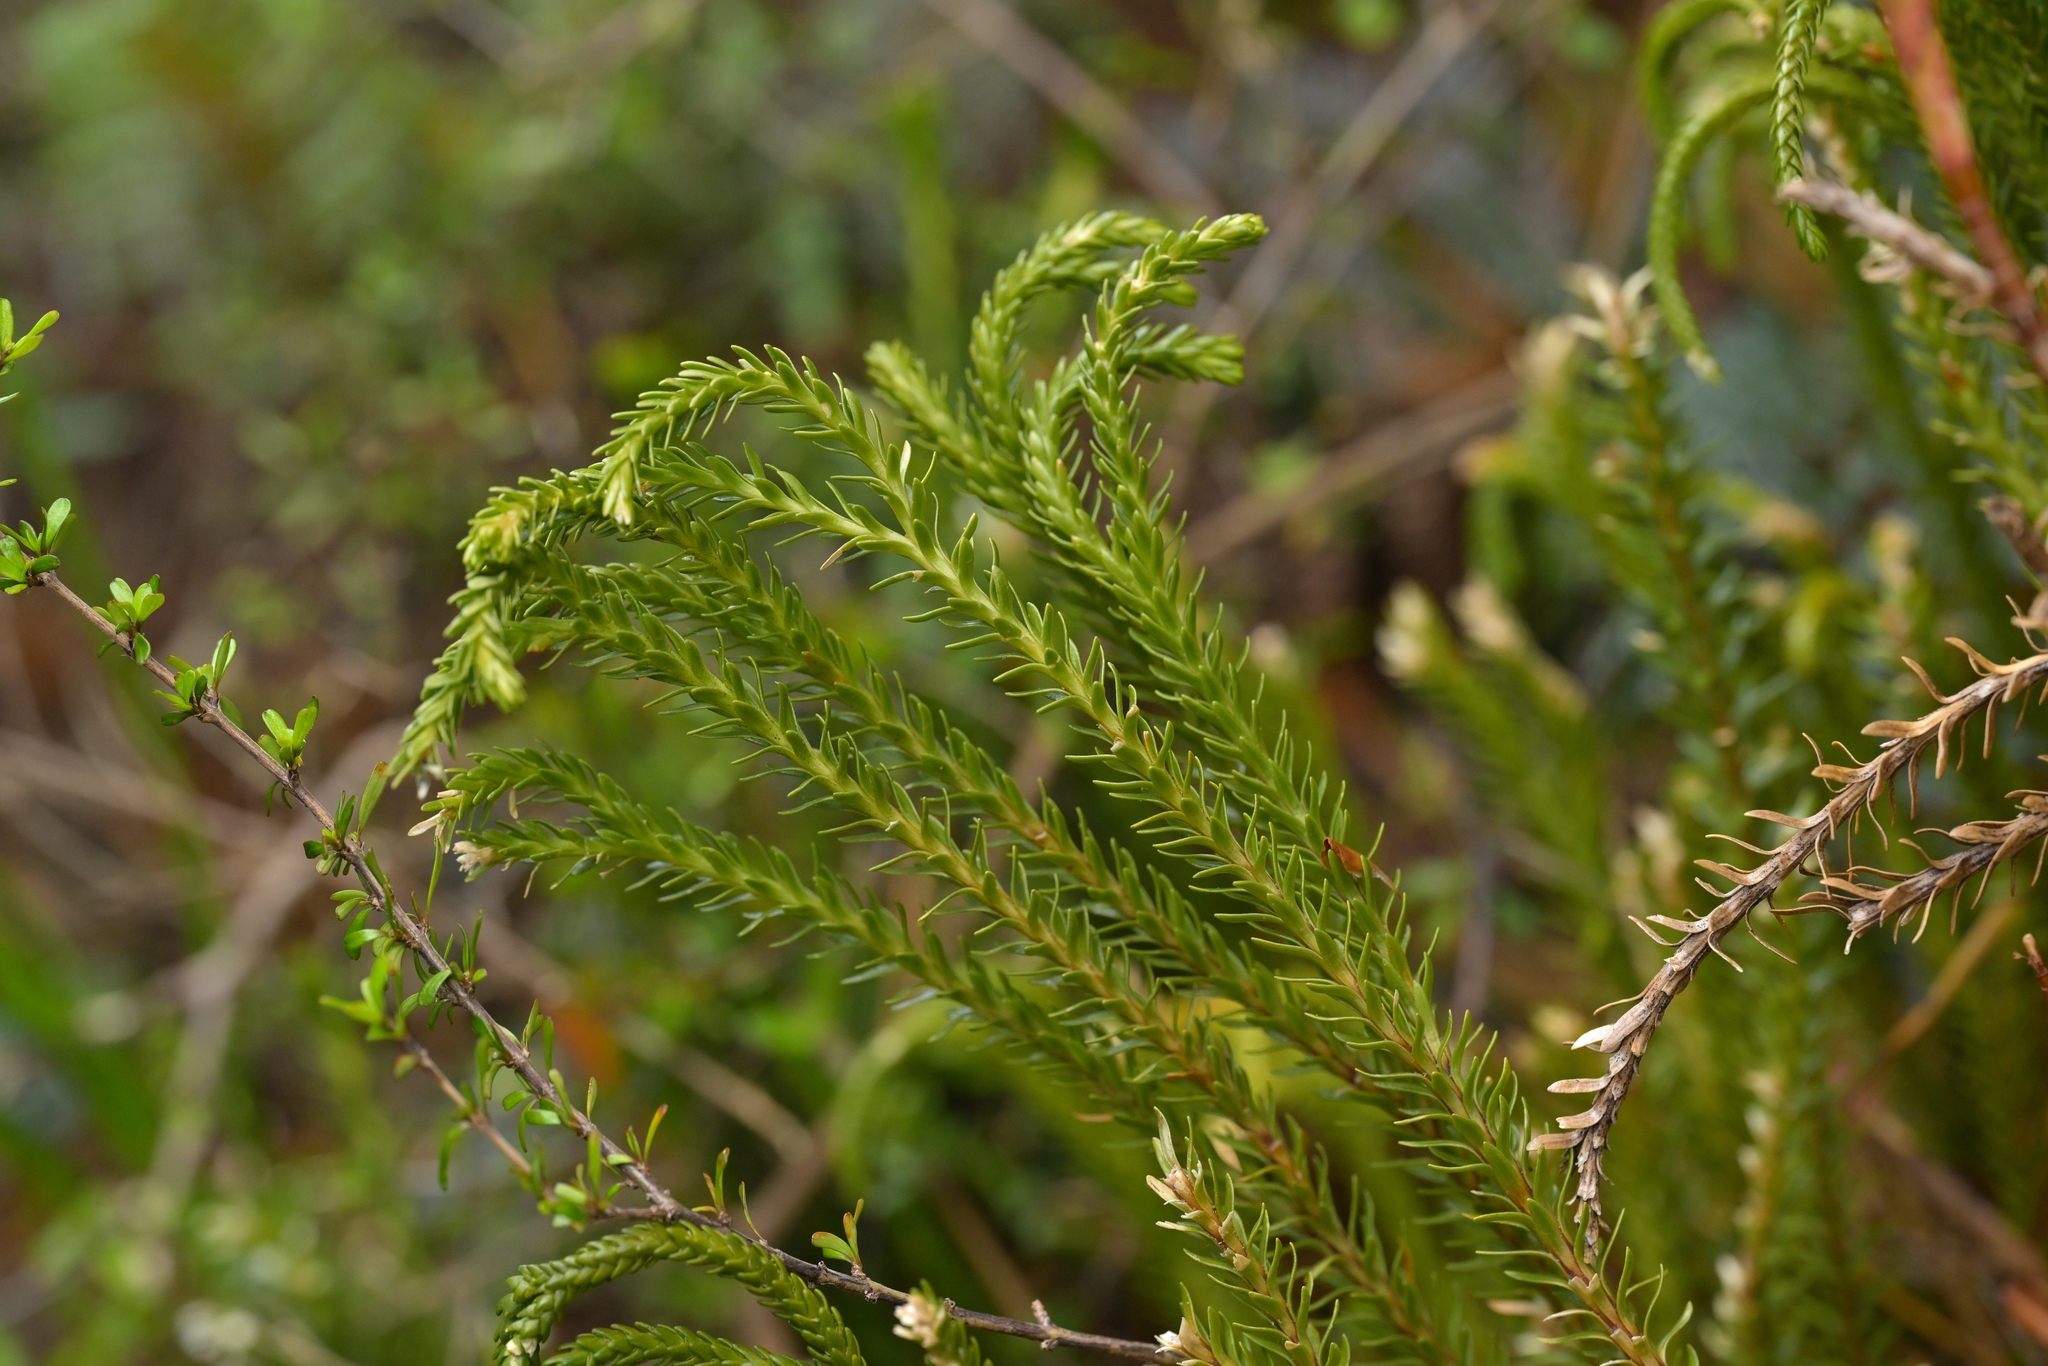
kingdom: Plantae
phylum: Tracheophyta
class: Lycopodiopsida
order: Lycopodiales
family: Lycopodiaceae
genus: Phlegmariurus
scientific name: Phlegmariurus varius
